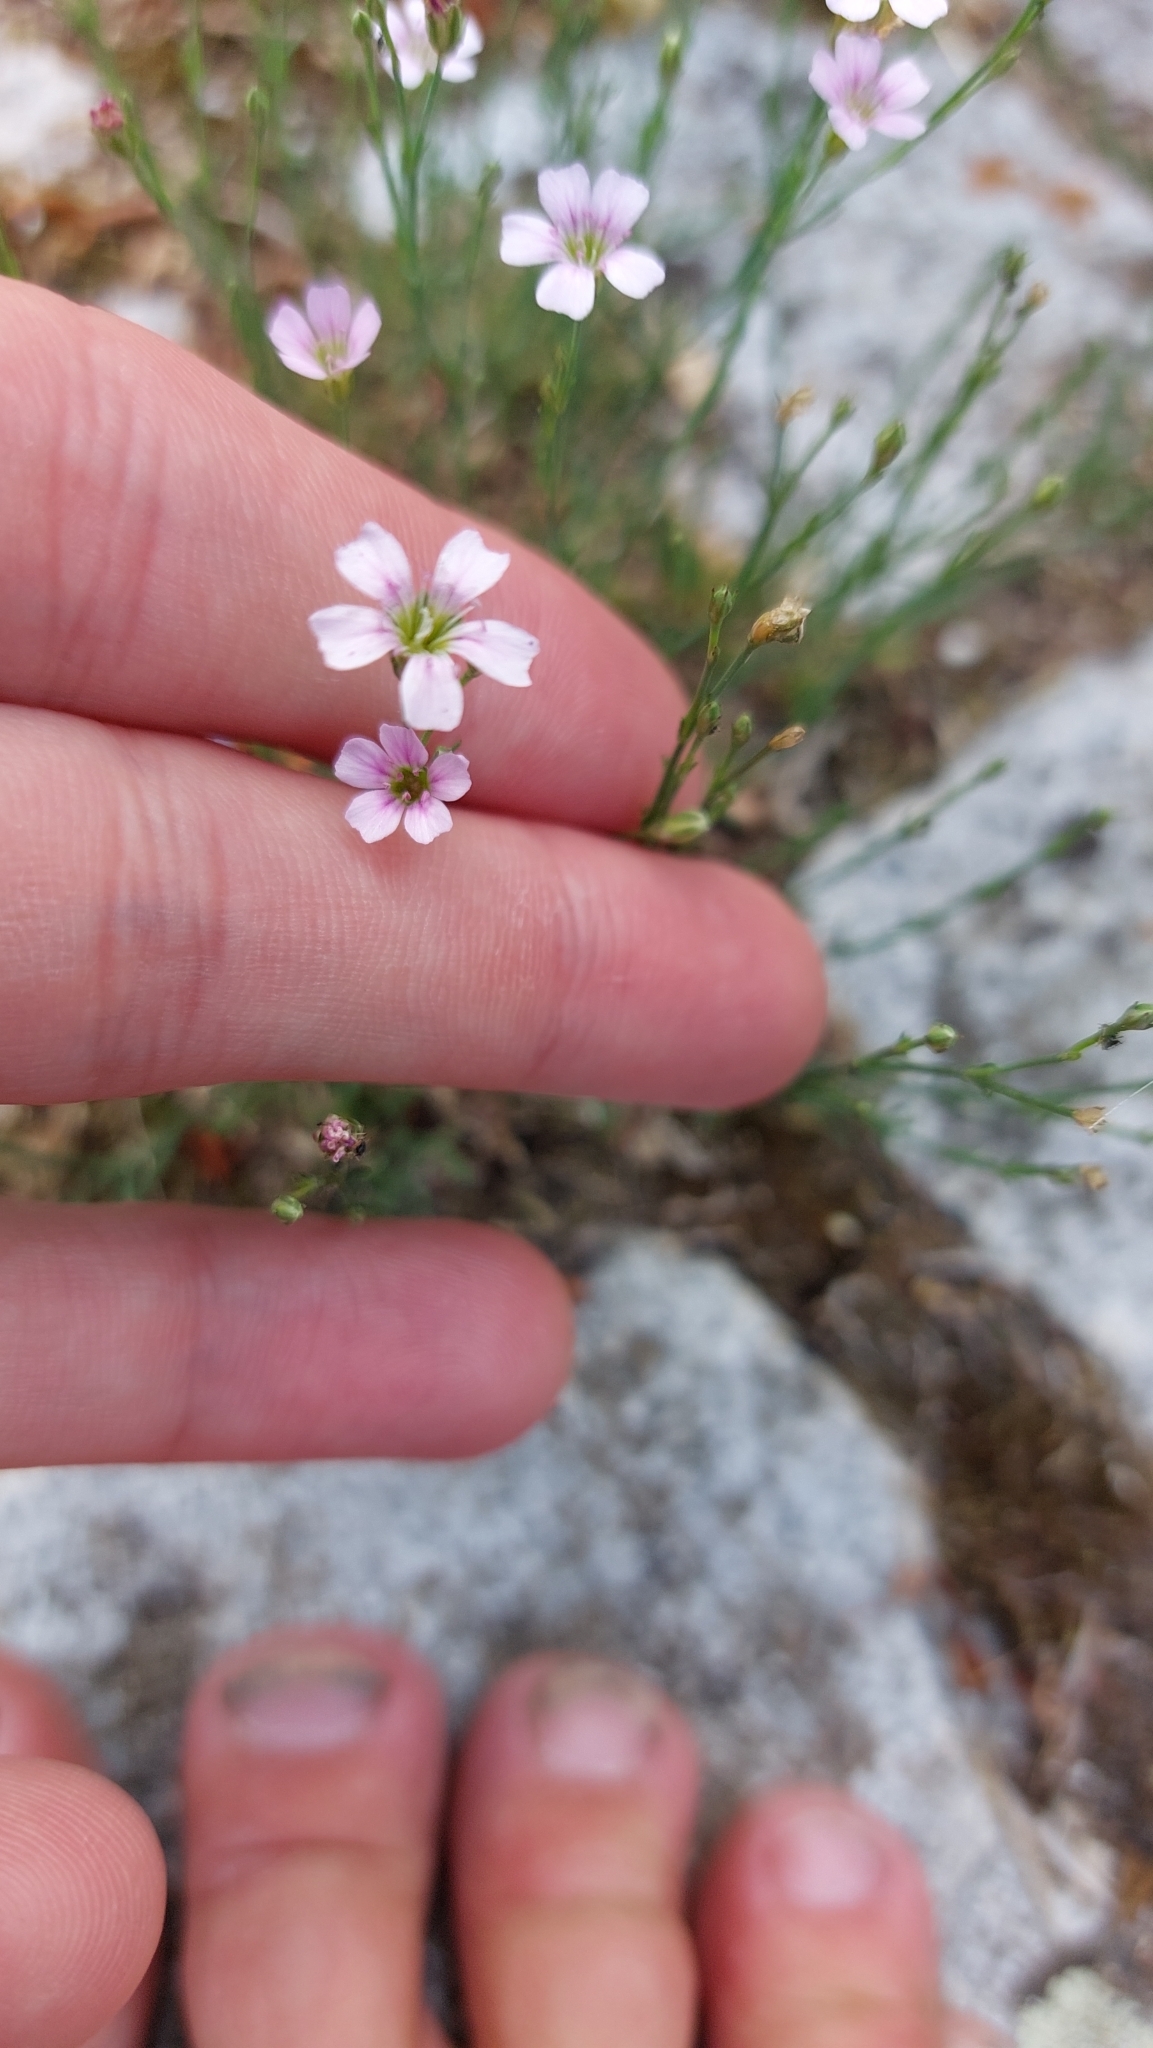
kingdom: Plantae
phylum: Tracheophyta
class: Magnoliopsida
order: Caryophyllales
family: Caryophyllaceae
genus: Petrorhagia
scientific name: Petrorhagia saxifraga
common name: Tunicflower
